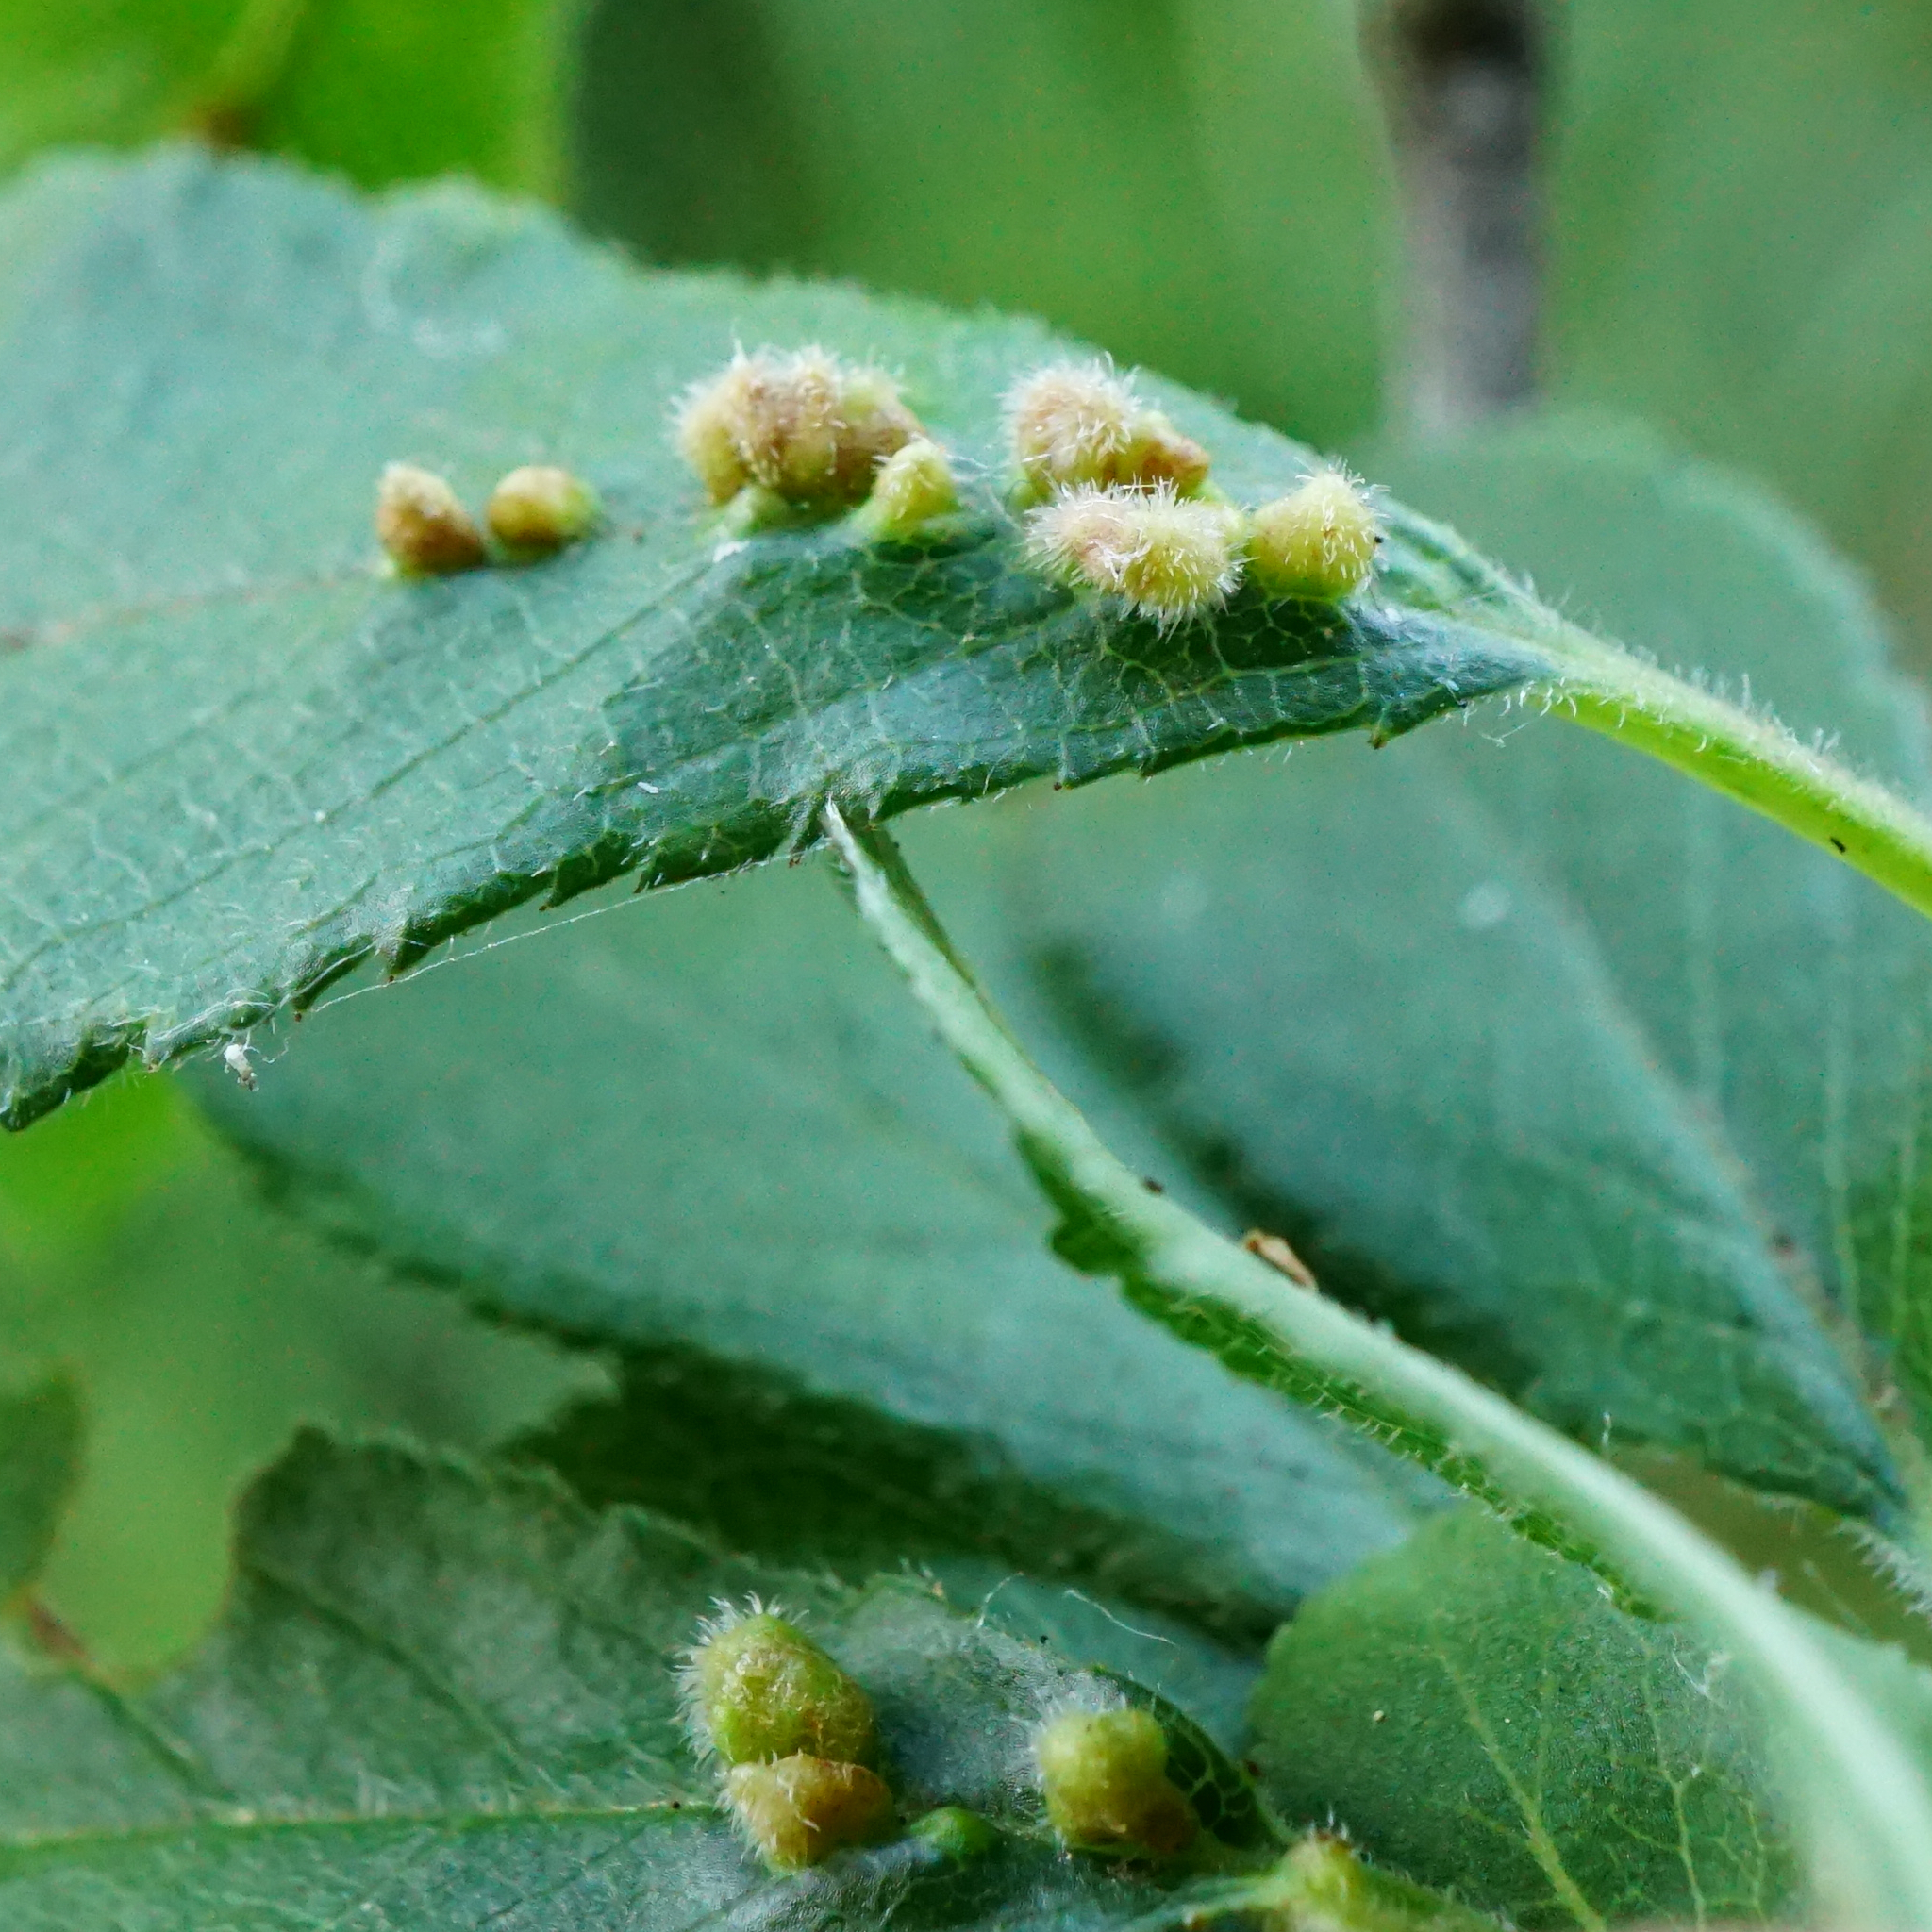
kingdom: Animalia
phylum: Arthropoda
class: Arachnida
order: Trombidiformes
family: Eriophyidae
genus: Eriophyes
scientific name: Eriophyes homophyllus
